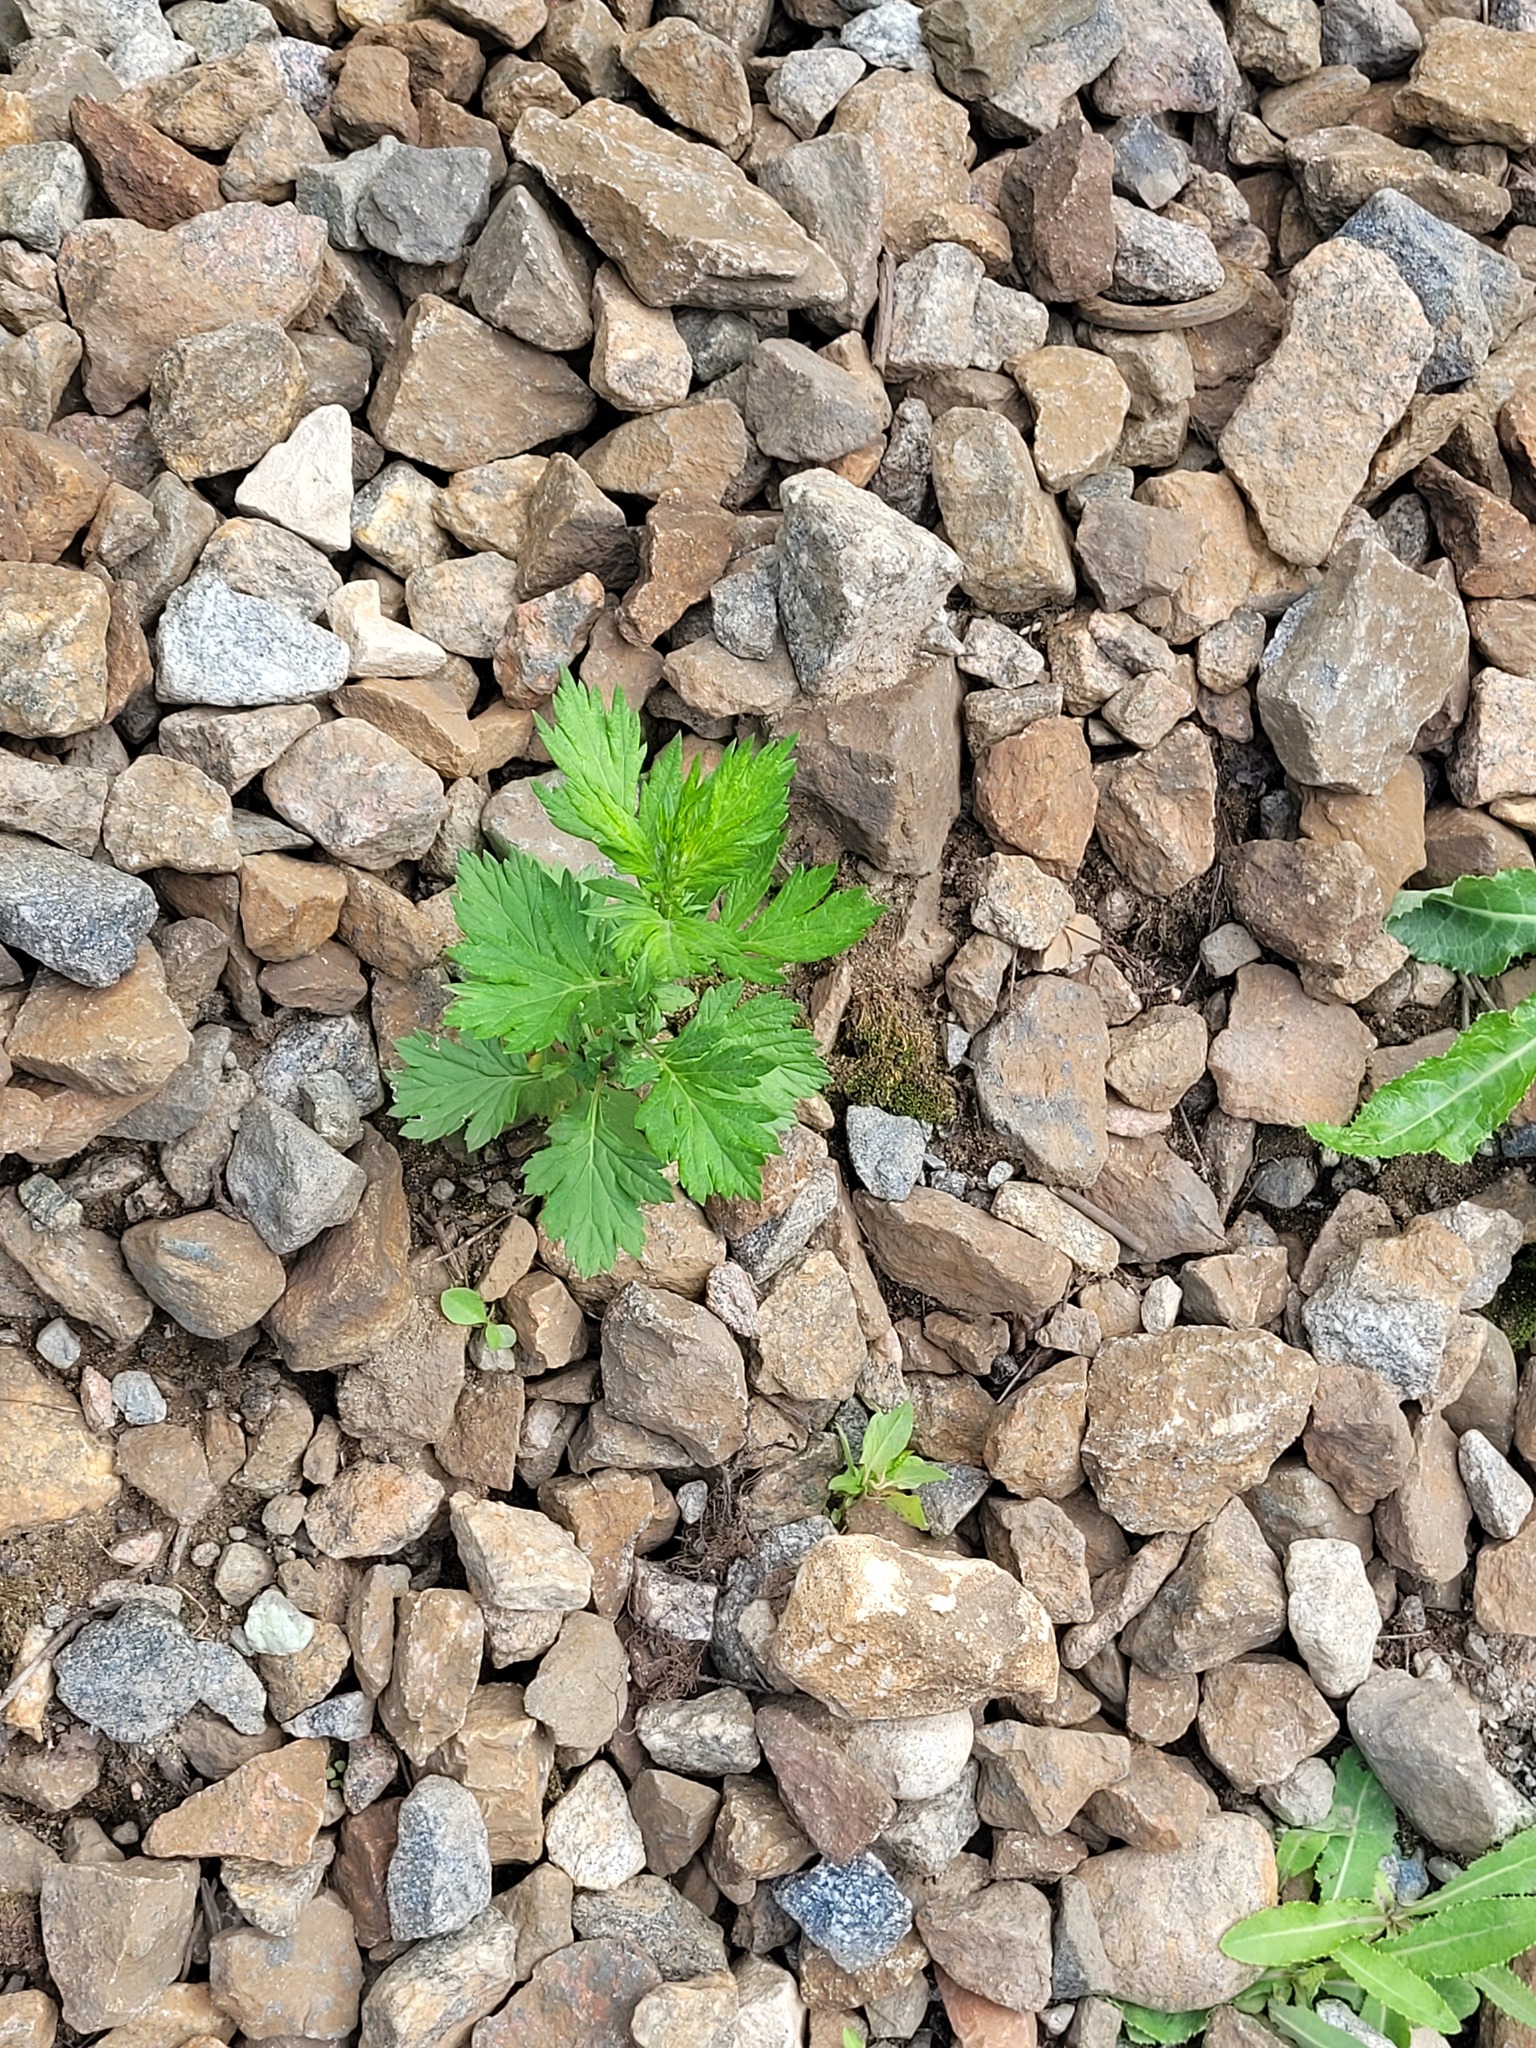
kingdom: Plantae
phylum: Tracheophyta
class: Magnoliopsida
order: Asterales
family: Asteraceae
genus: Artemisia
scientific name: Artemisia vulgaris
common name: Mugwort
